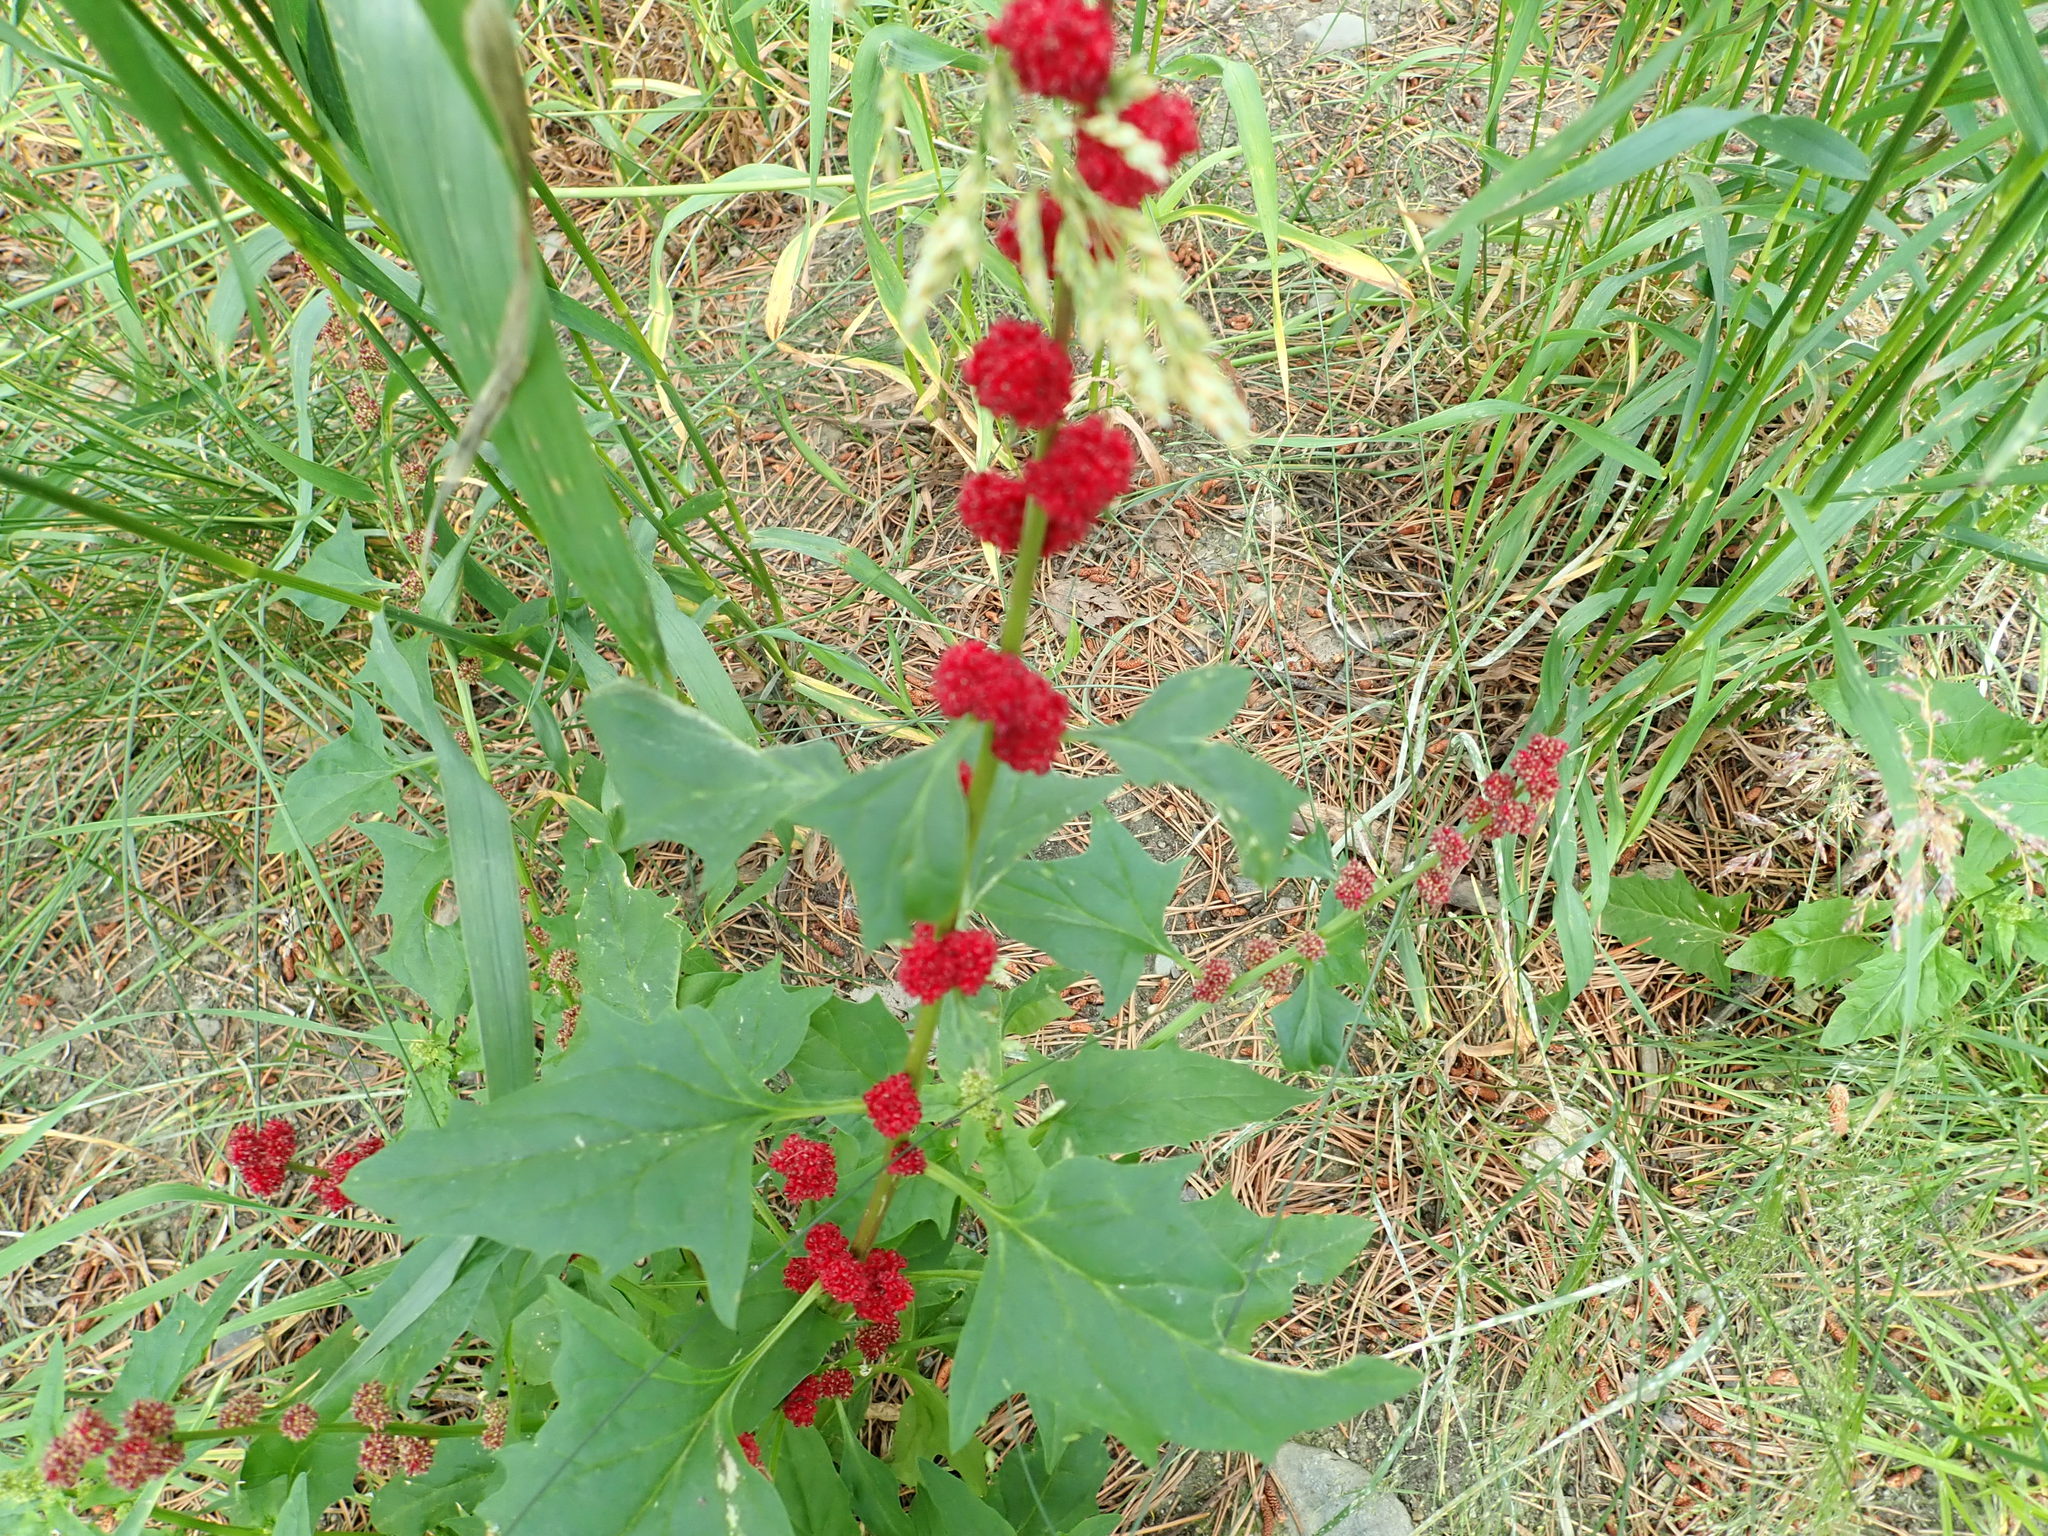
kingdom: Plantae
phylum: Tracheophyta
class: Magnoliopsida
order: Caryophyllales
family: Amaranthaceae
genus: Blitum
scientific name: Blitum capitatum
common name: Strawberry-blight
